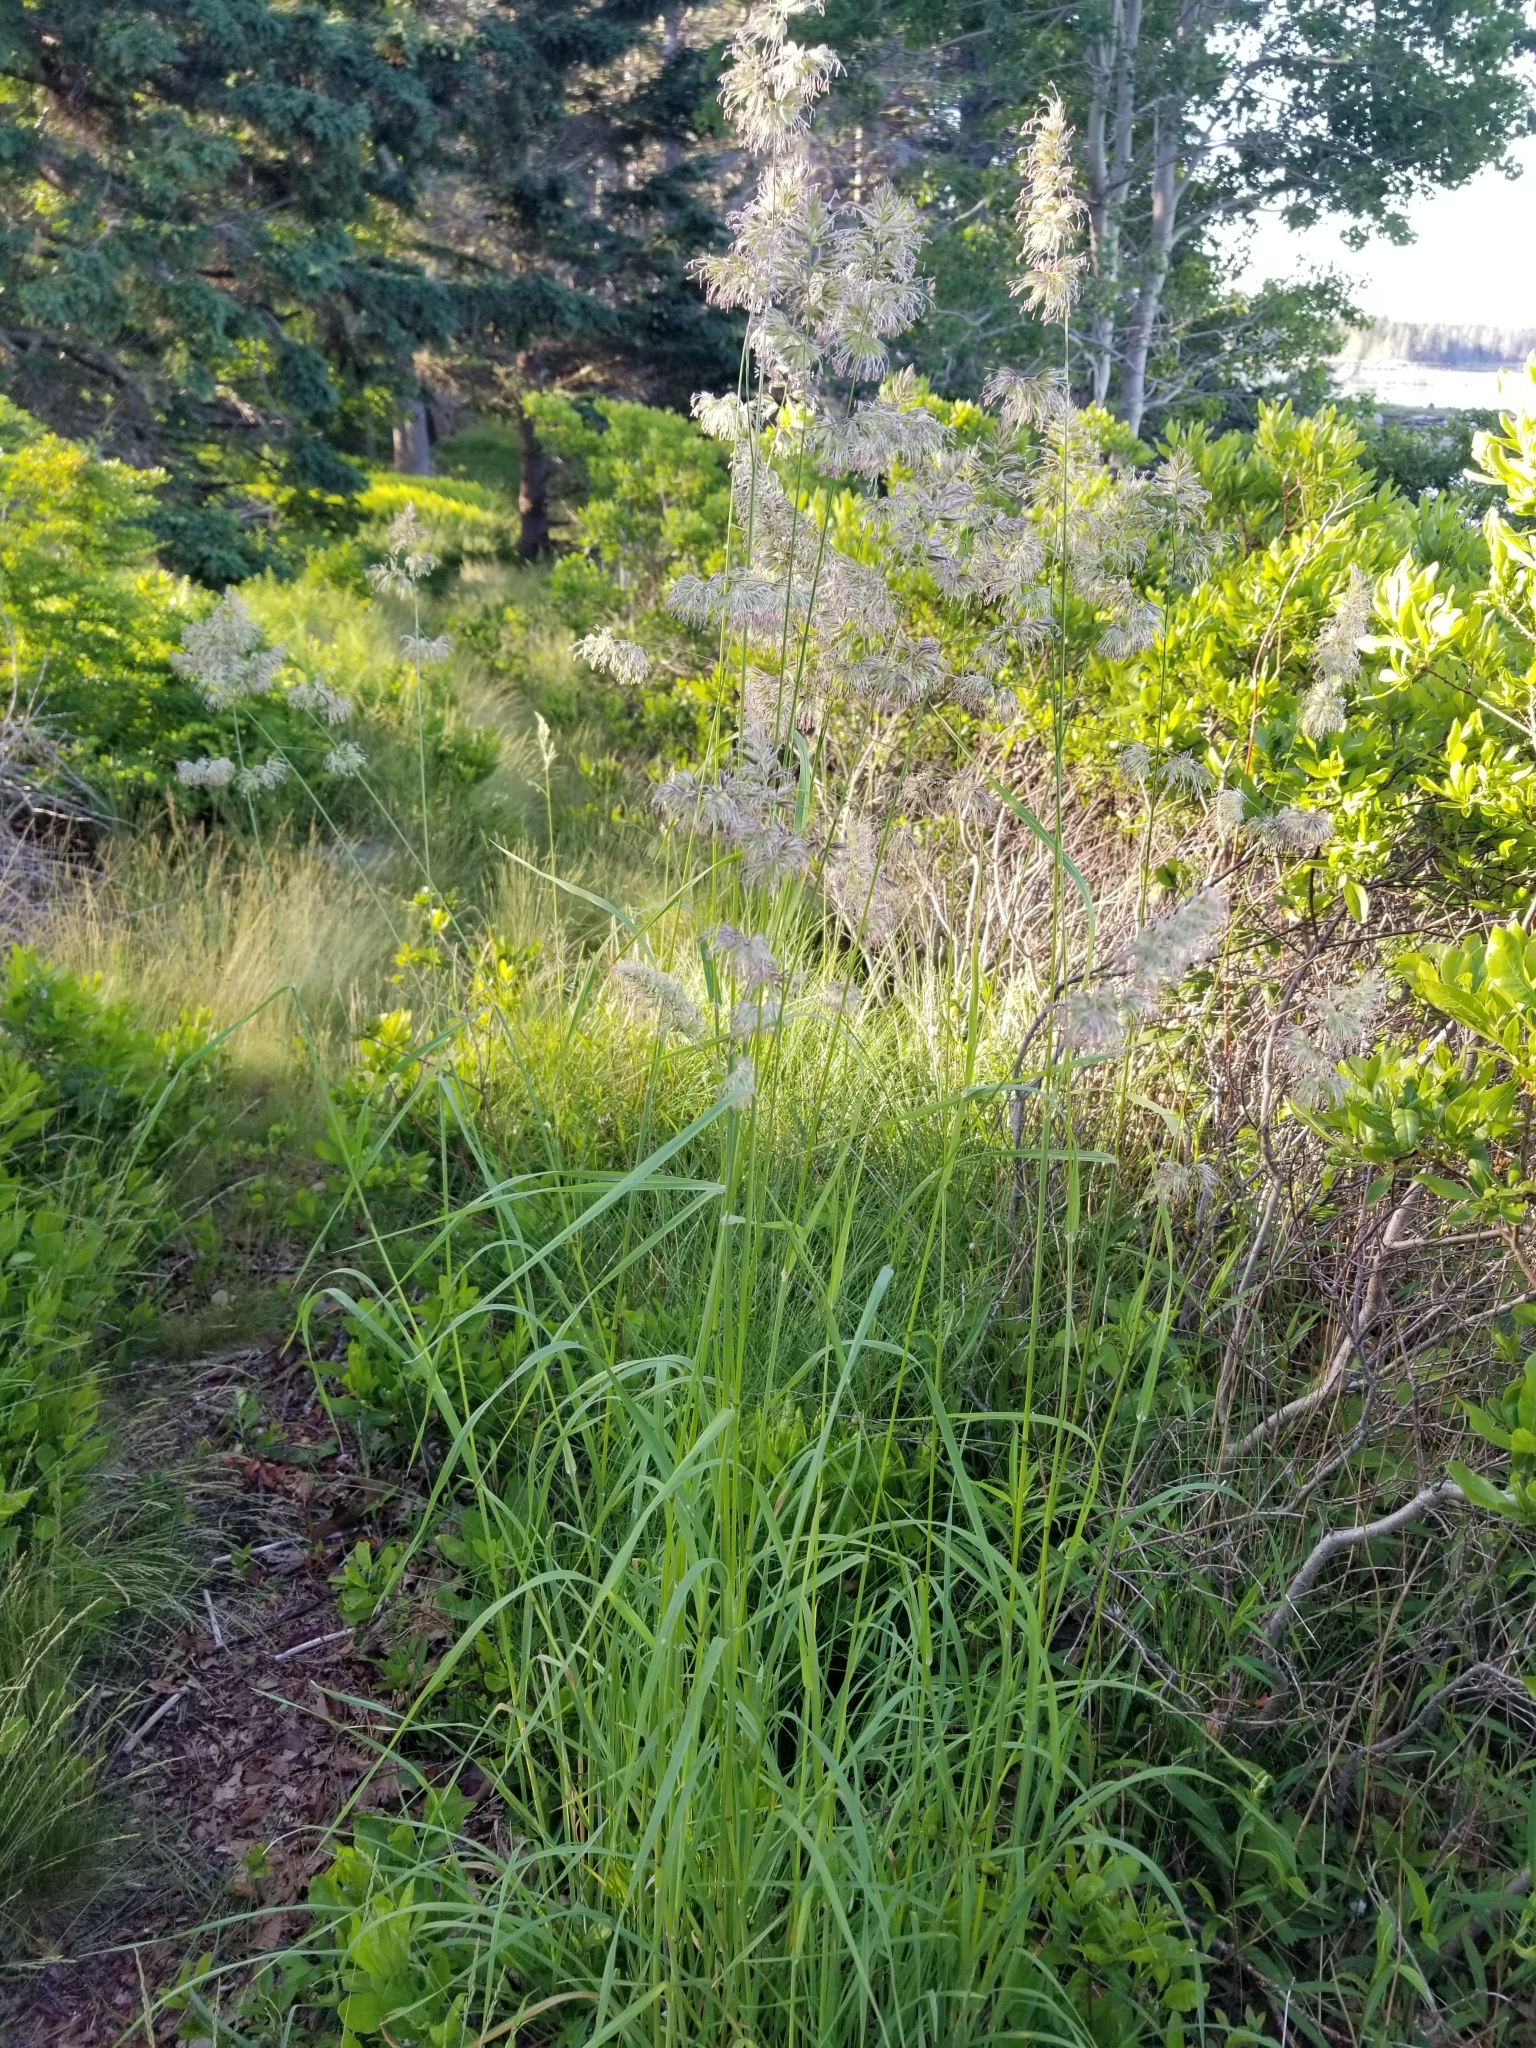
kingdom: Plantae
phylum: Tracheophyta
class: Liliopsida
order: Poales
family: Poaceae
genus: Dactylis
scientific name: Dactylis glomerata
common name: Orchardgrass
